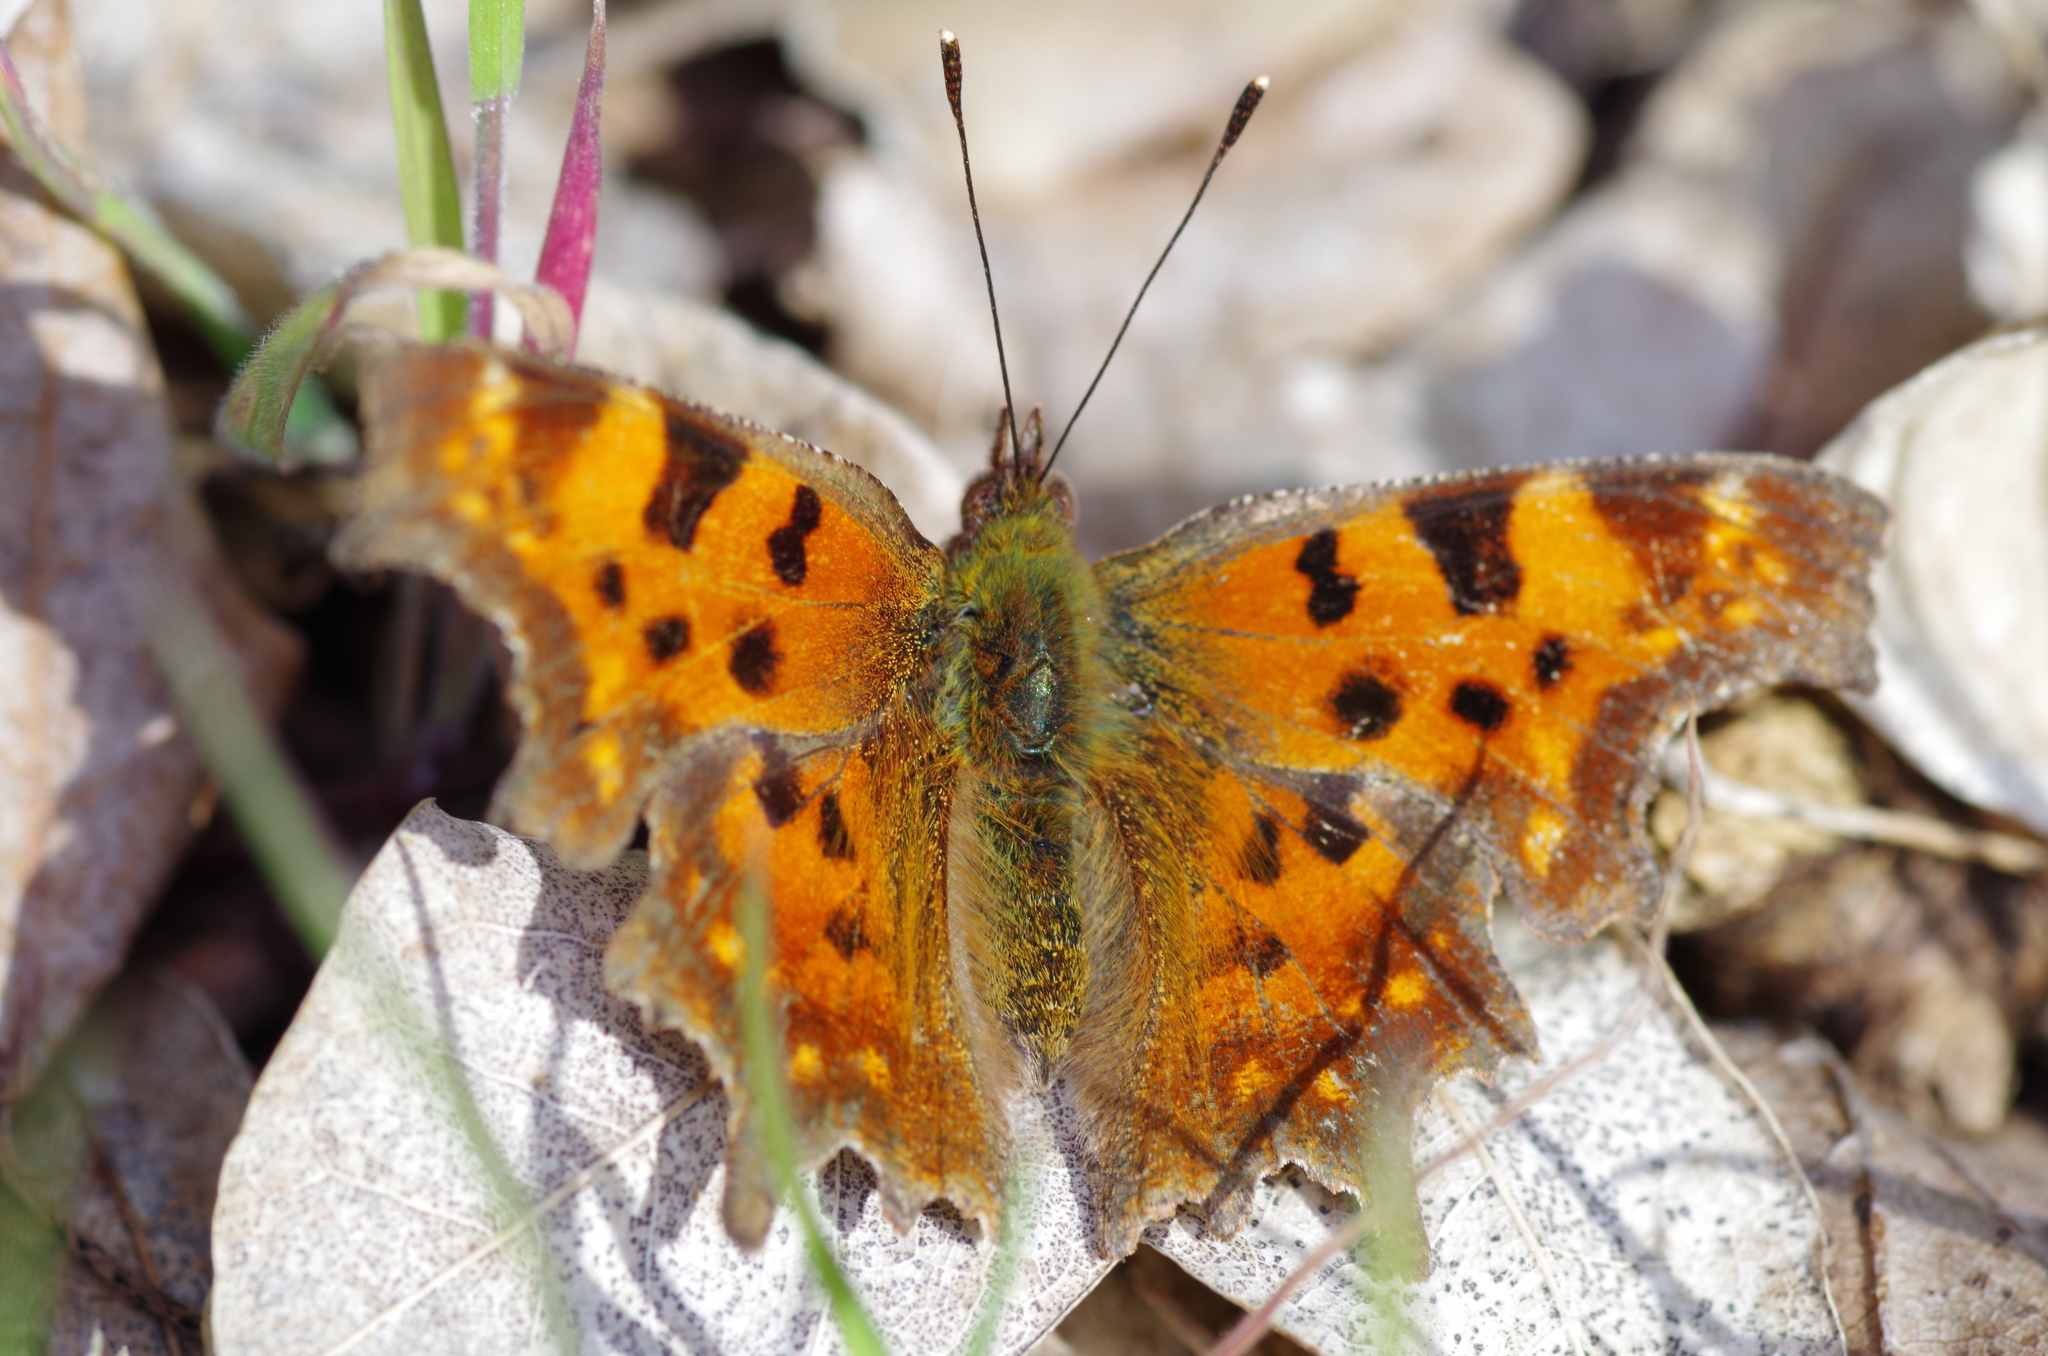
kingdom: Animalia
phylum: Arthropoda
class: Insecta
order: Lepidoptera
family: Nymphalidae
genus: Polygonia
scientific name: Polygonia c-album
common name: Comma
